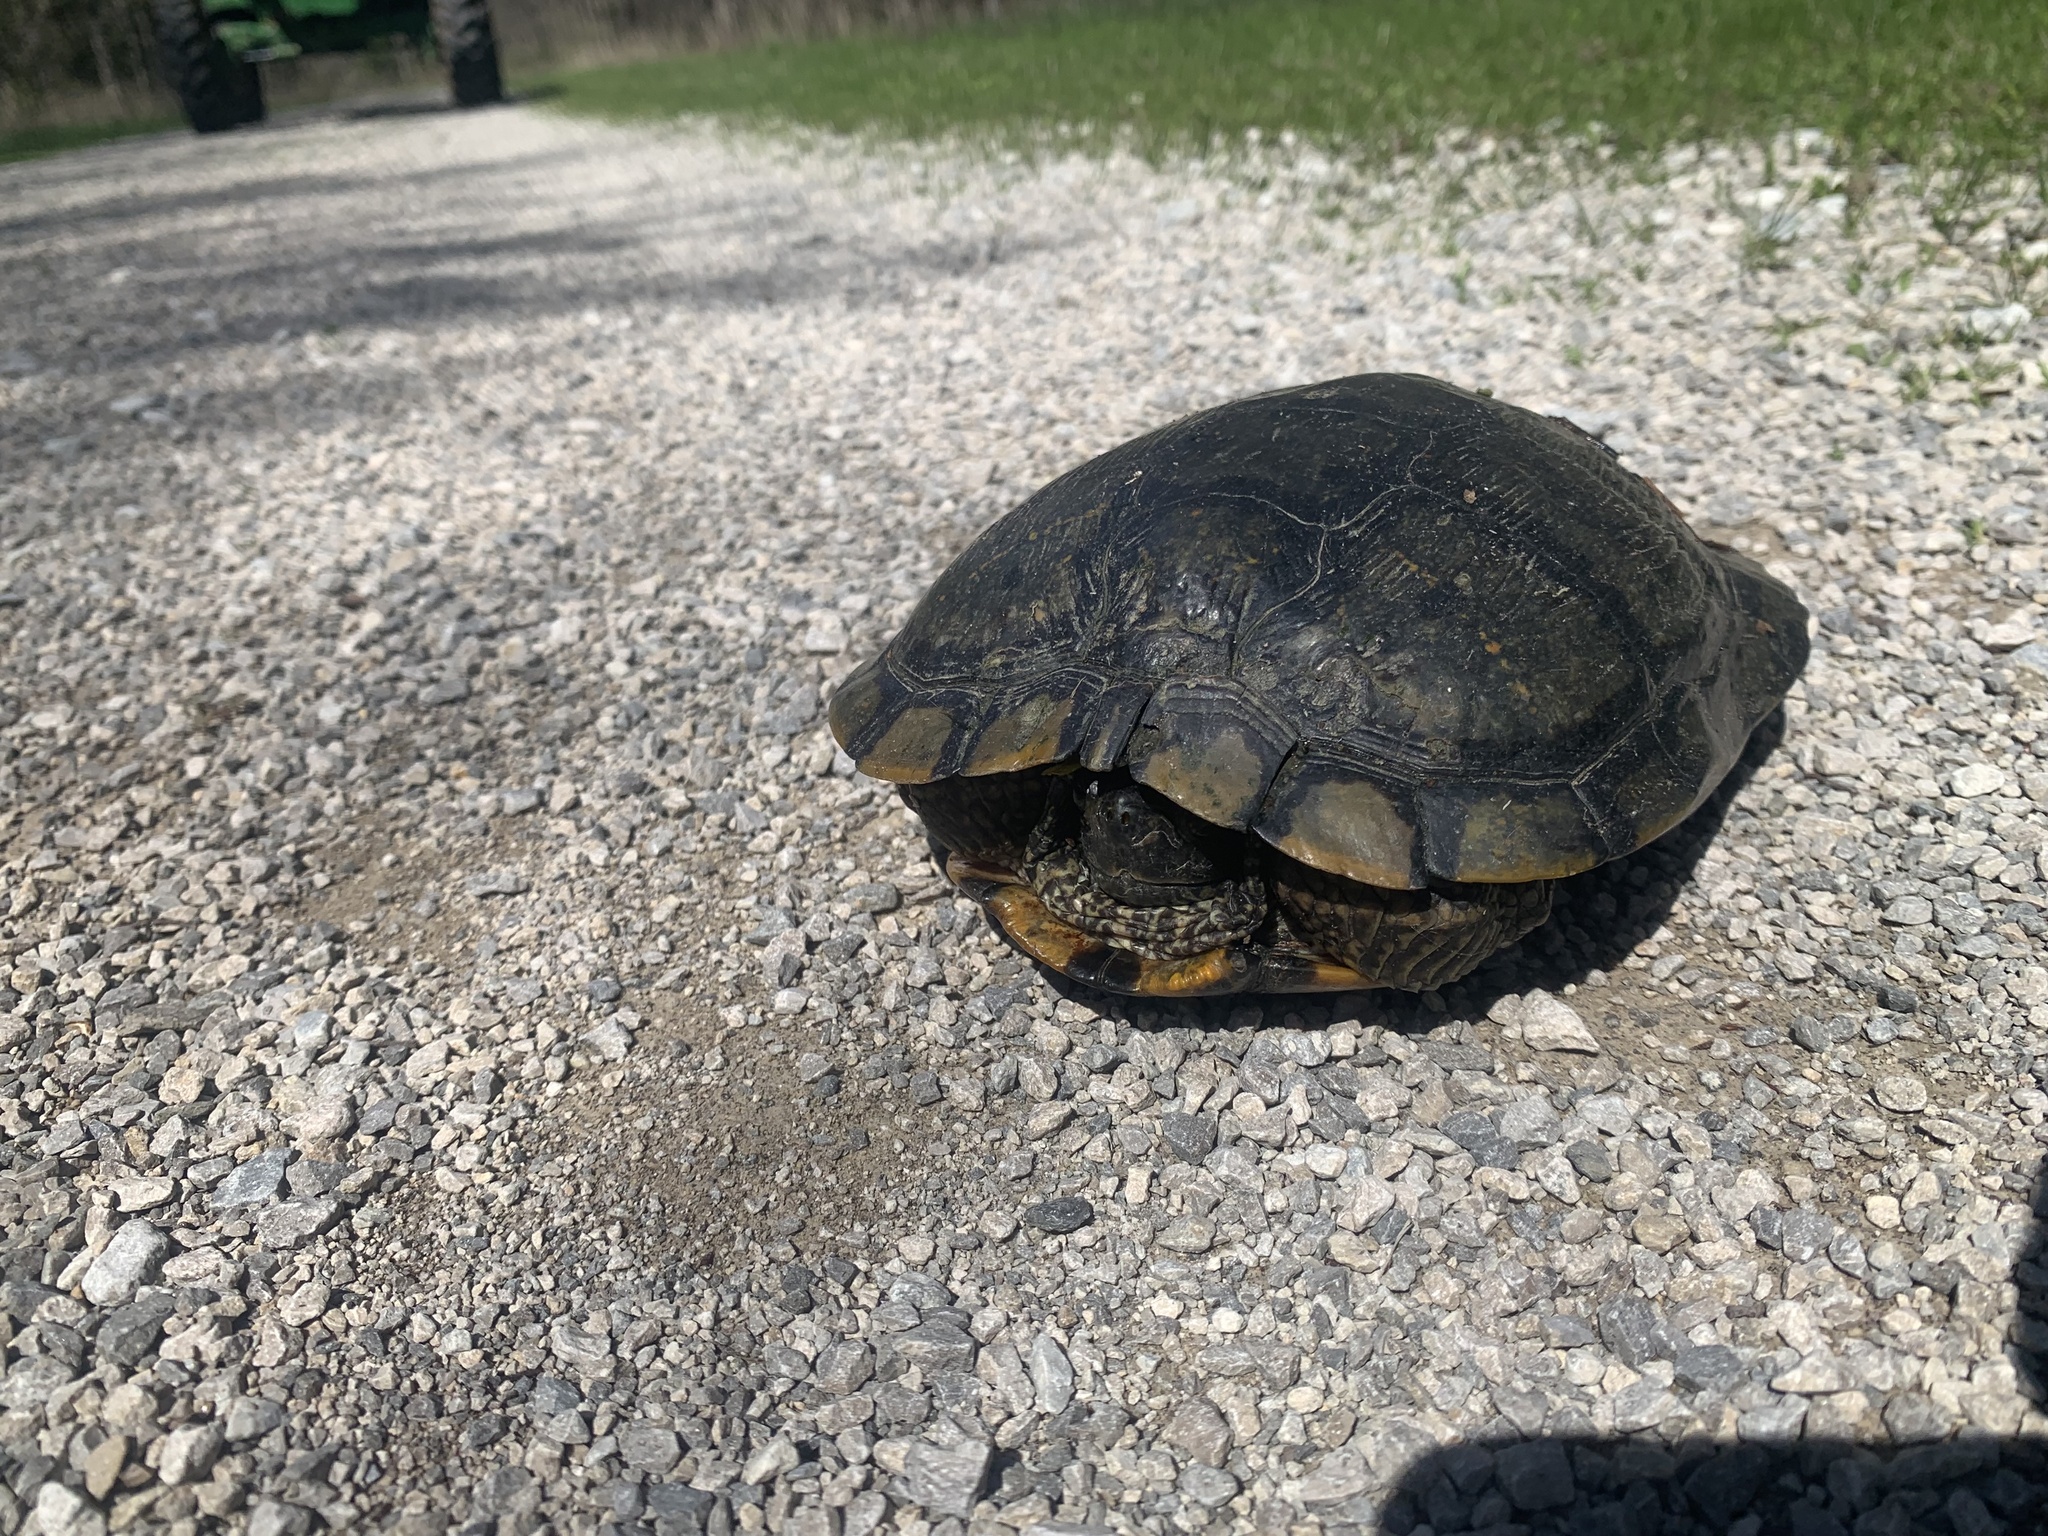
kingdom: Animalia
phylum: Chordata
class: Testudines
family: Emydidae
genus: Trachemys
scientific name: Trachemys scripta
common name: Slider
